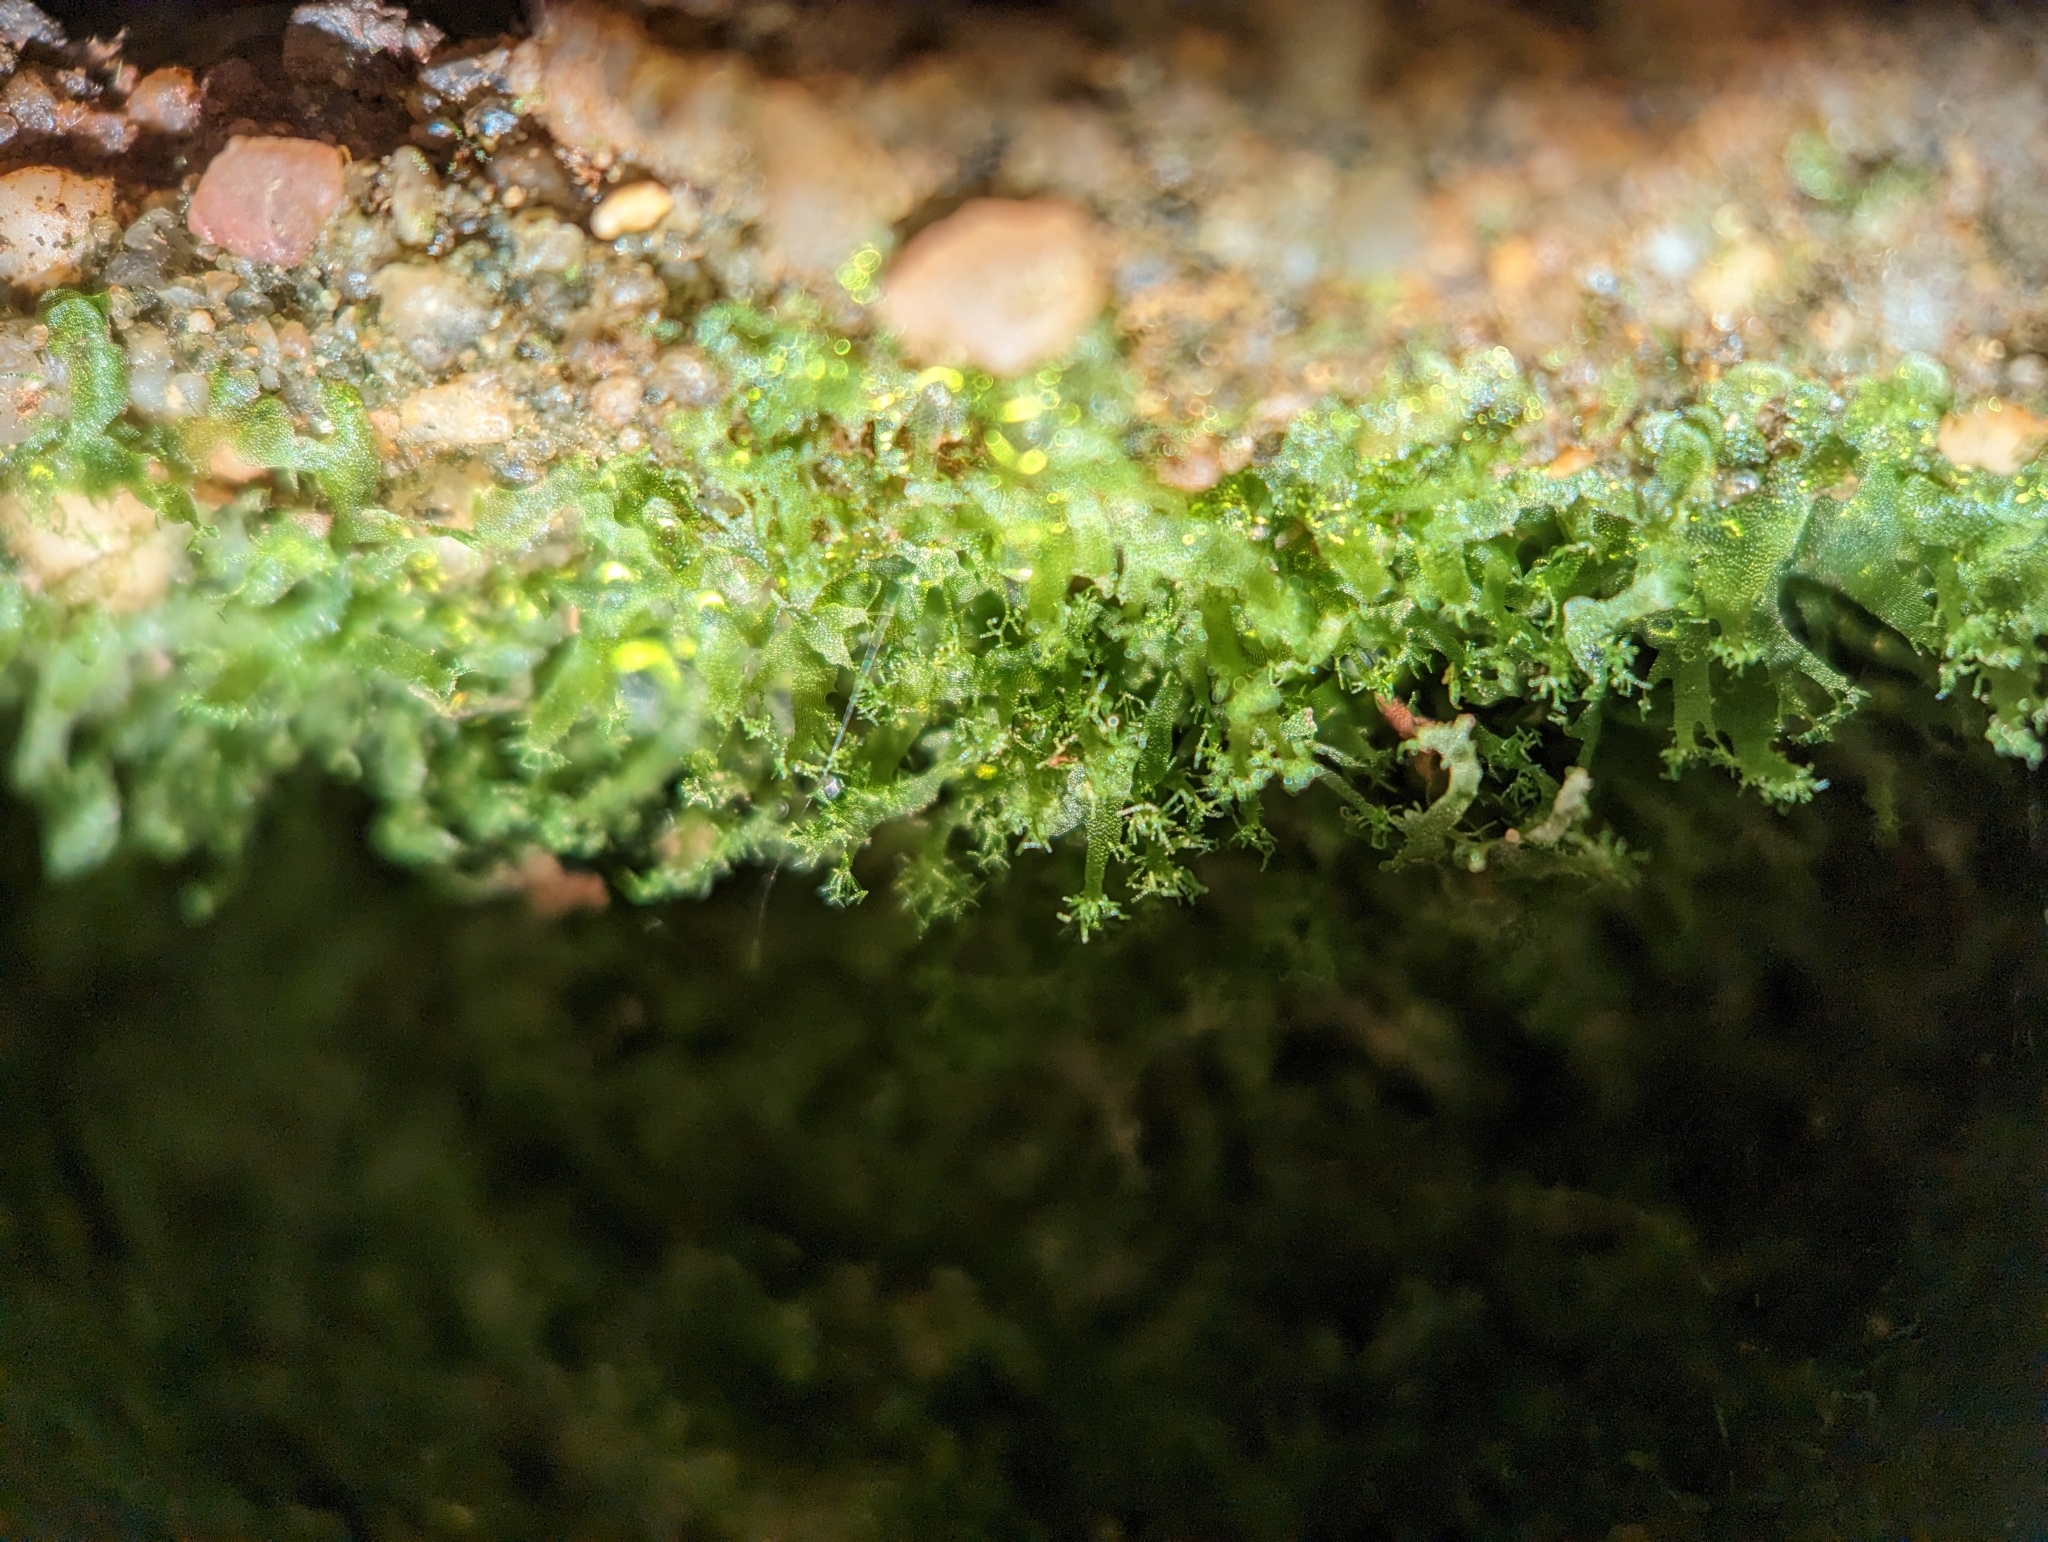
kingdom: Plantae
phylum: Tracheophyta
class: Polypodiopsida
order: Polypodiales
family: Pteridaceae
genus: Vittaria
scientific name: Vittaria appalachiana
